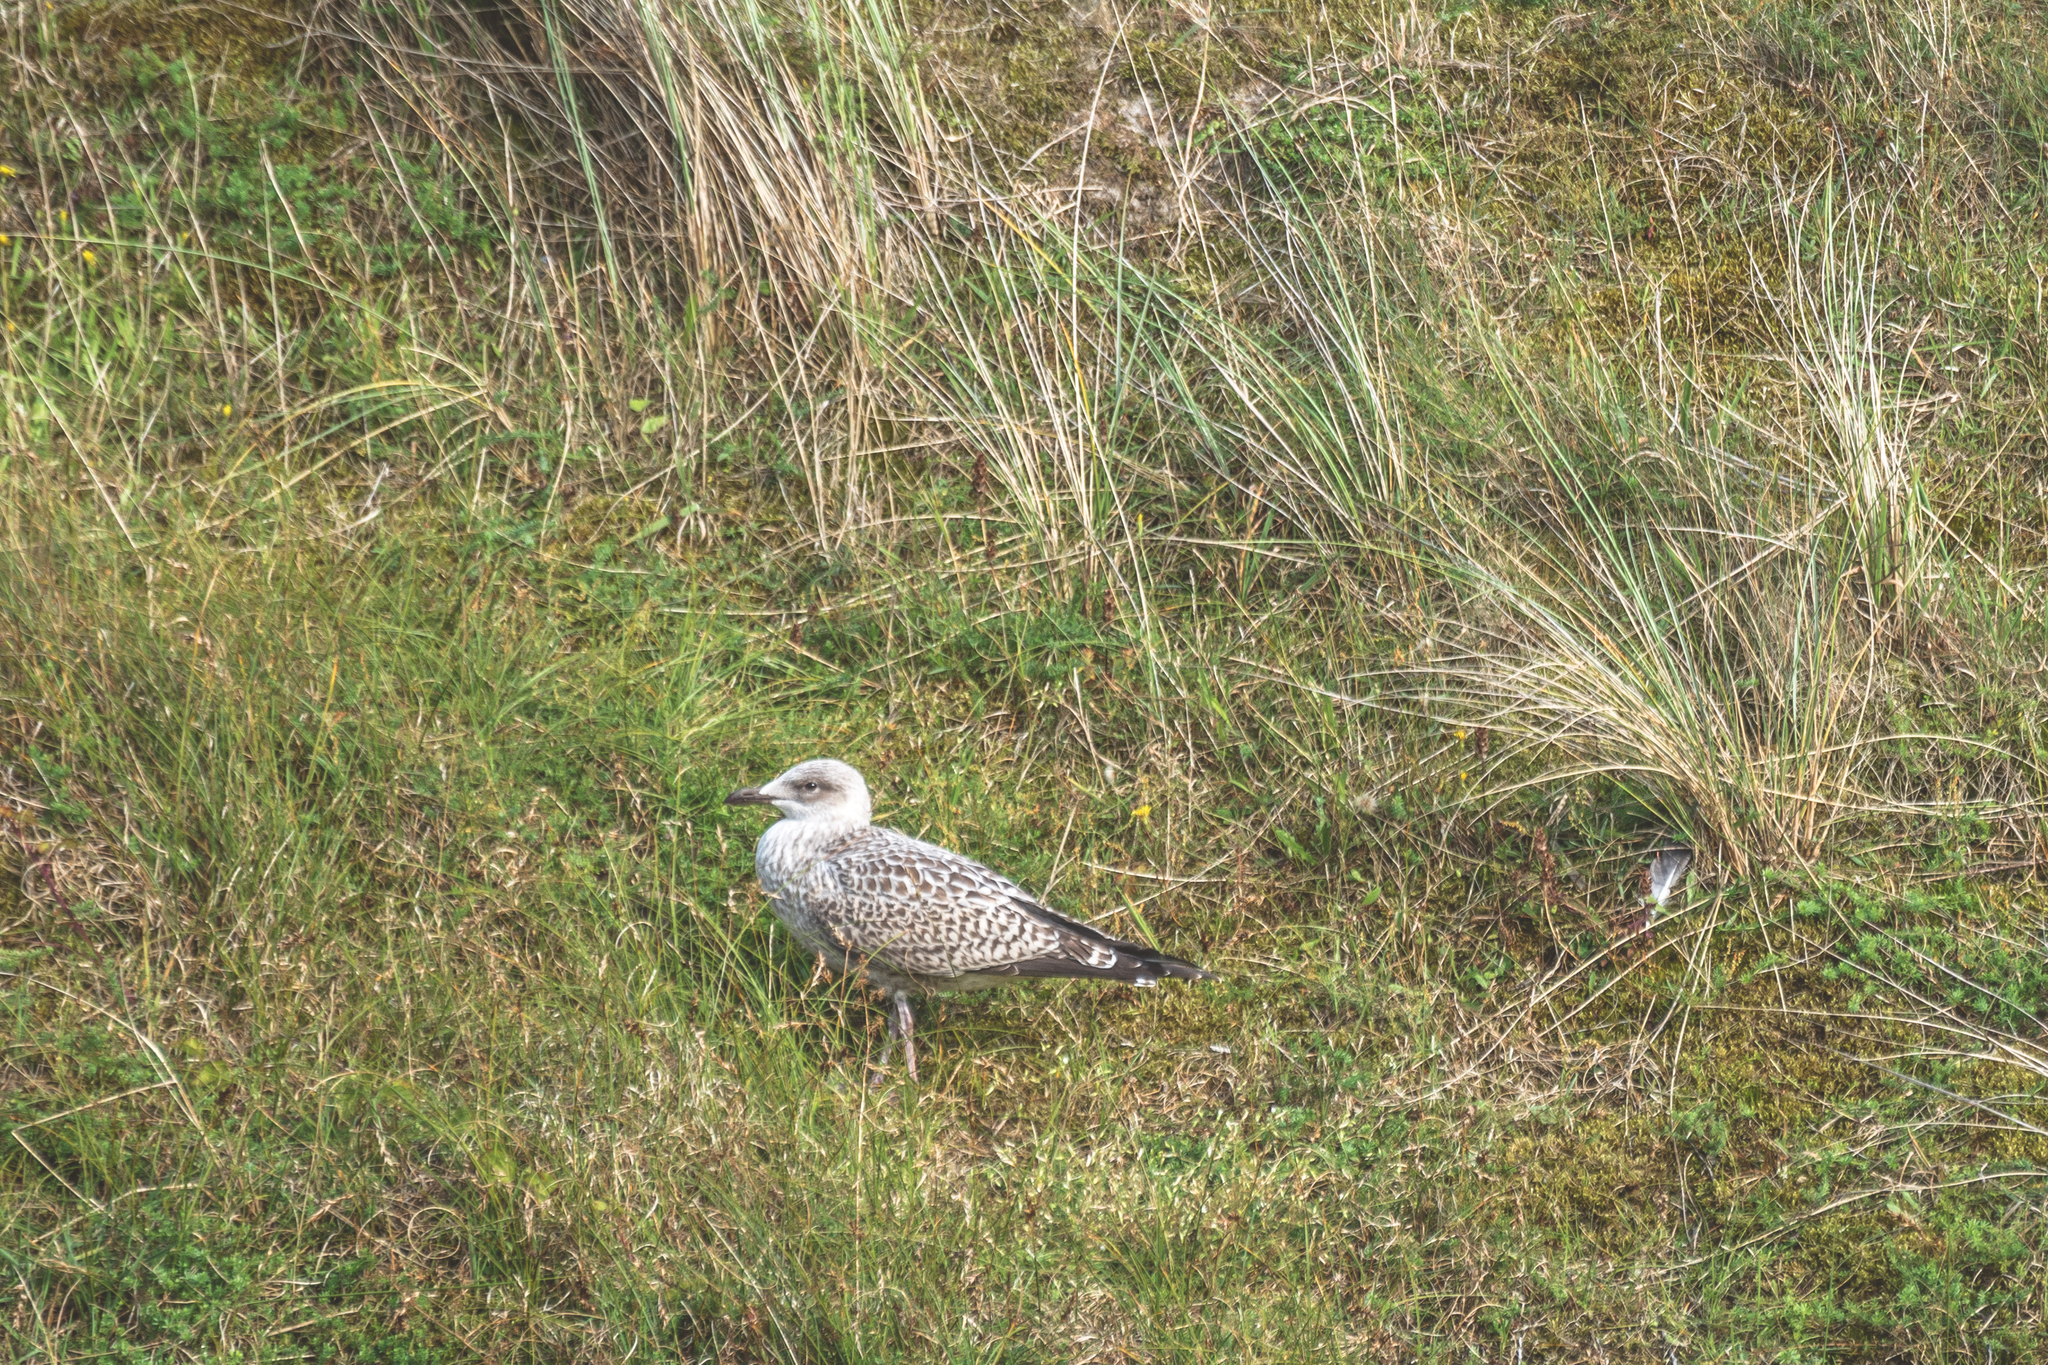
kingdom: Animalia
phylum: Chordata
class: Aves
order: Charadriiformes
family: Laridae
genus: Larus
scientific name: Larus argentatus
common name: Herring gull
